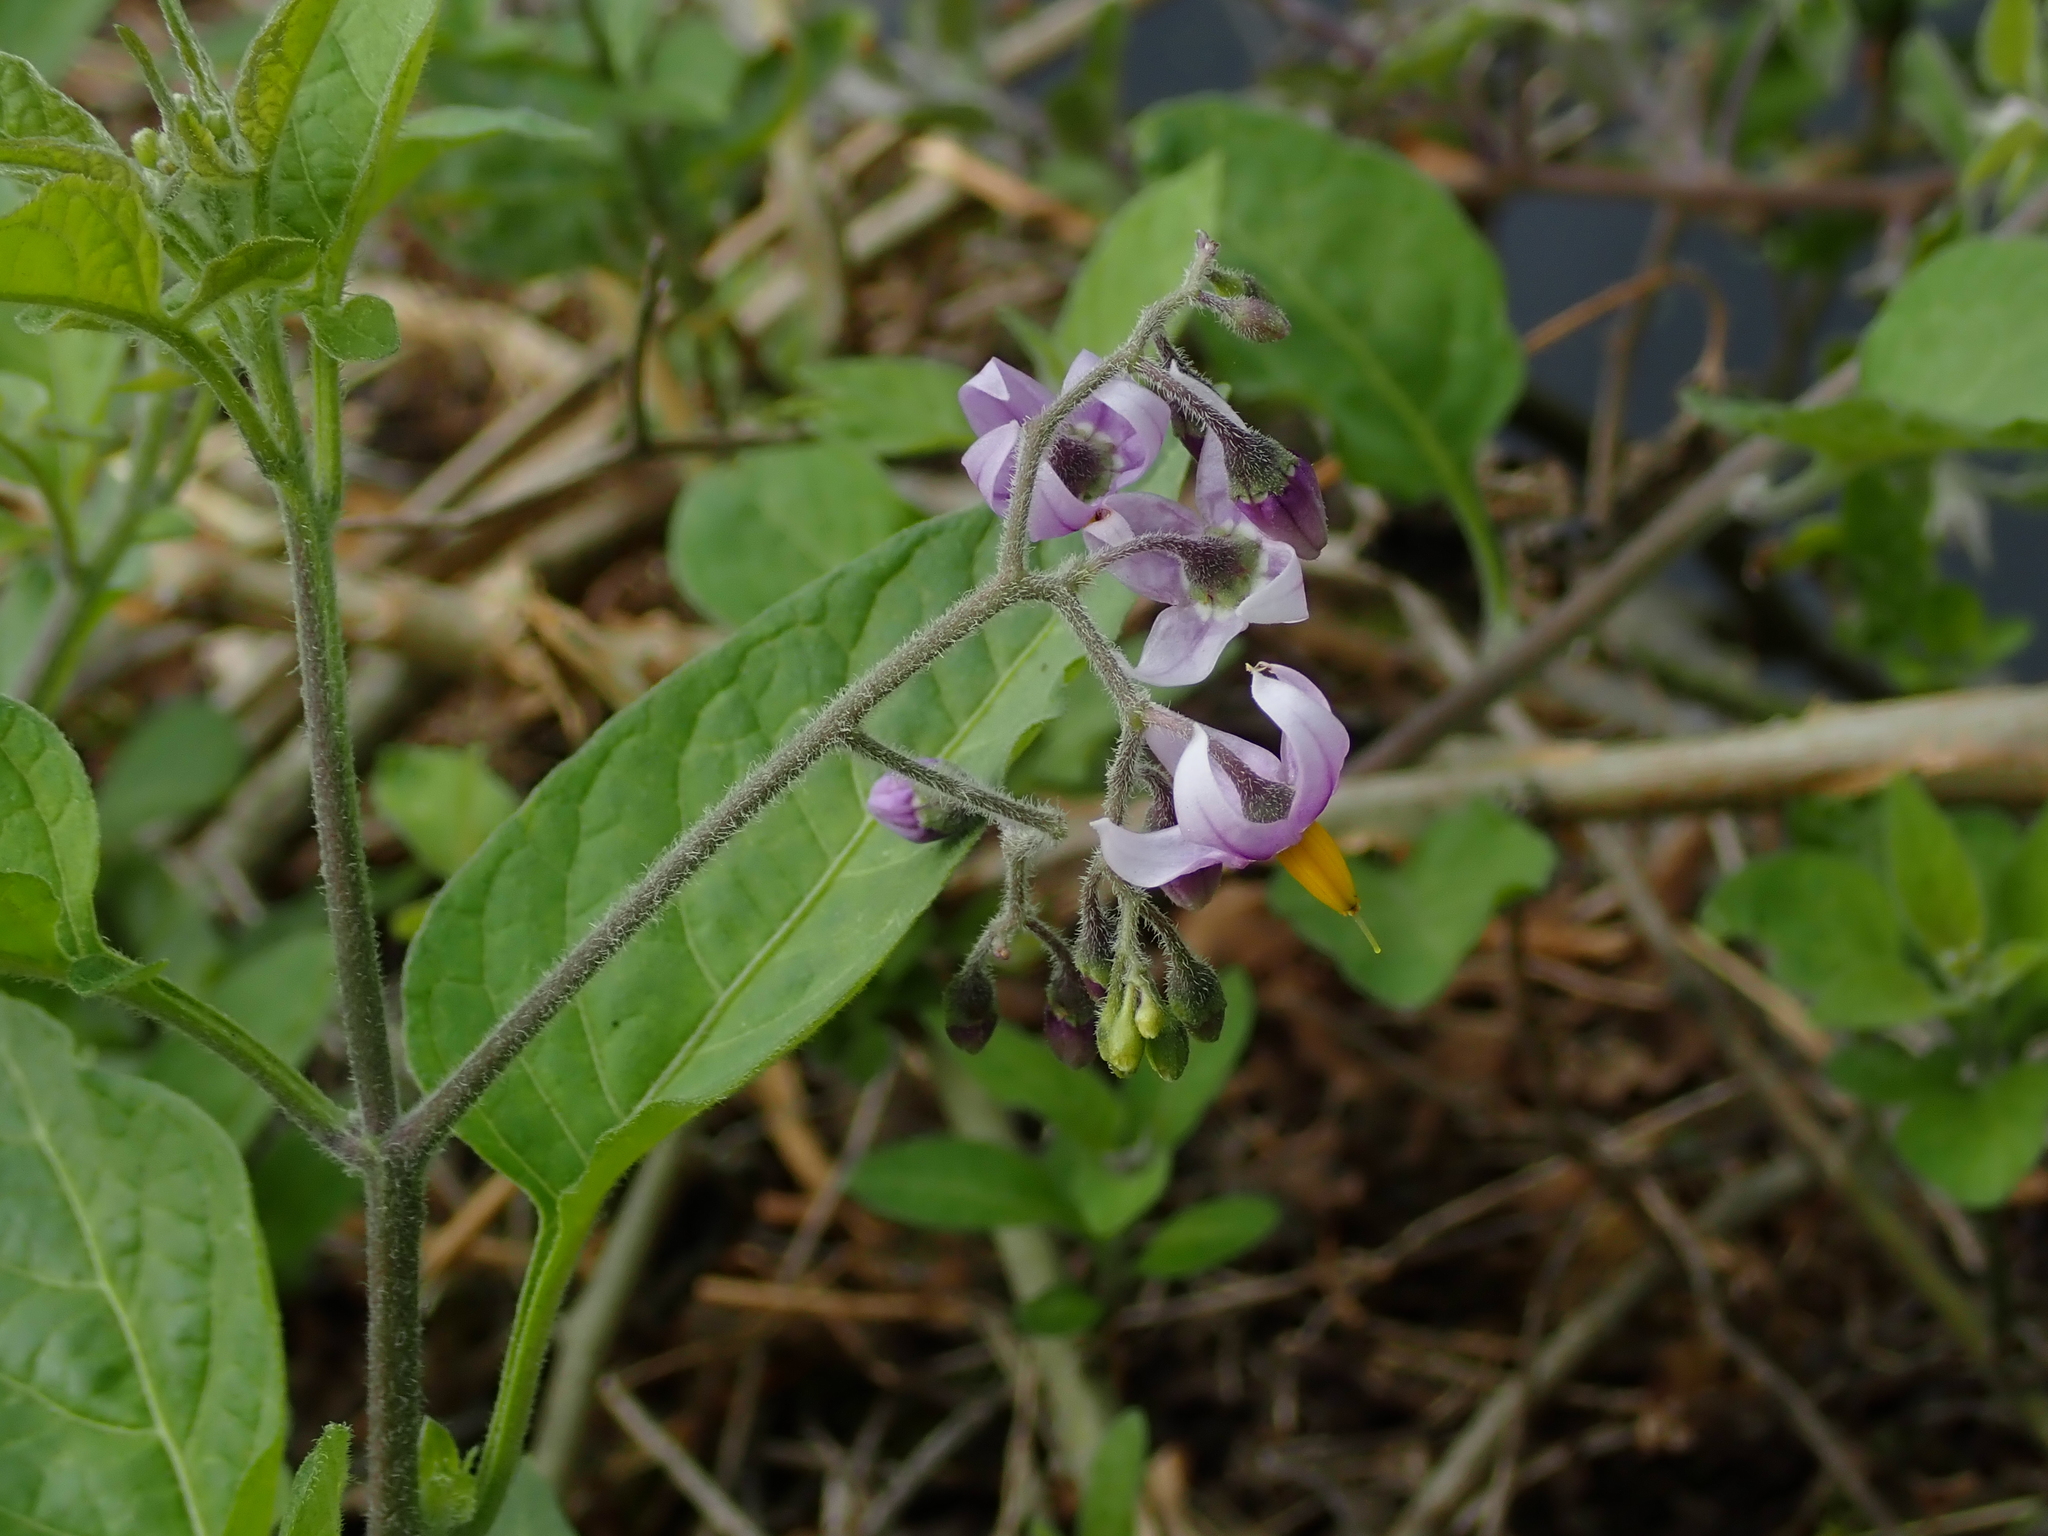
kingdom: Plantae
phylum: Tracheophyta
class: Magnoliopsida
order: Solanales
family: Solanaceae
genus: Solanum
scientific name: Solanum dulcamara
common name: Climbing nightshade
